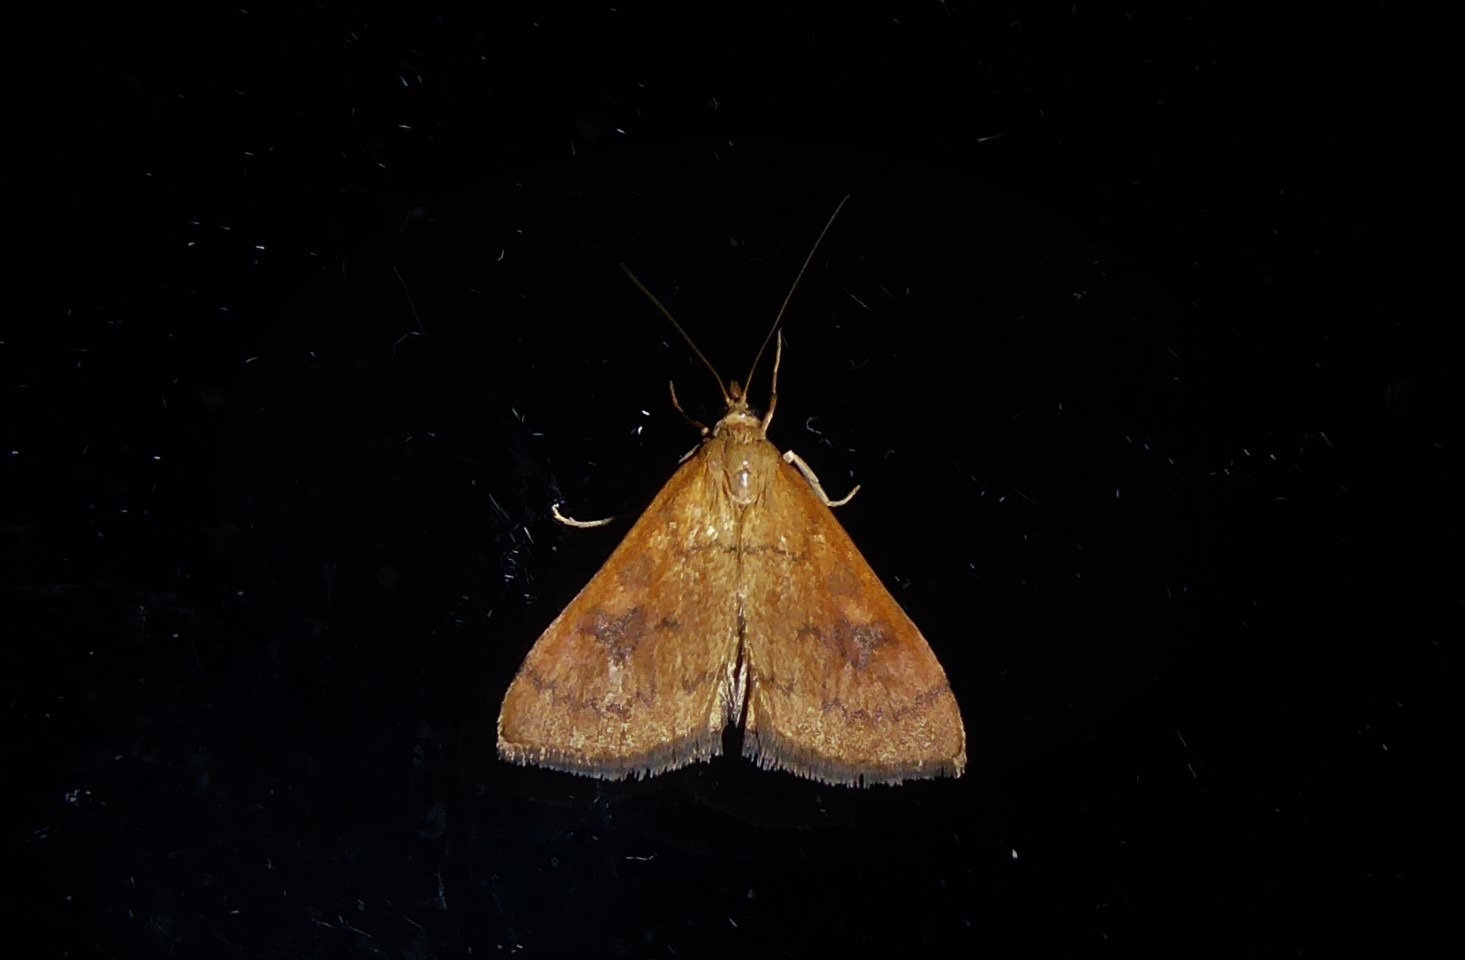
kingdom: Animalia
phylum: Arthropoda
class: Insecta
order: Lepidoptera
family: Crambidae
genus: Udea
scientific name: Udea Mnesictena flavidalis
